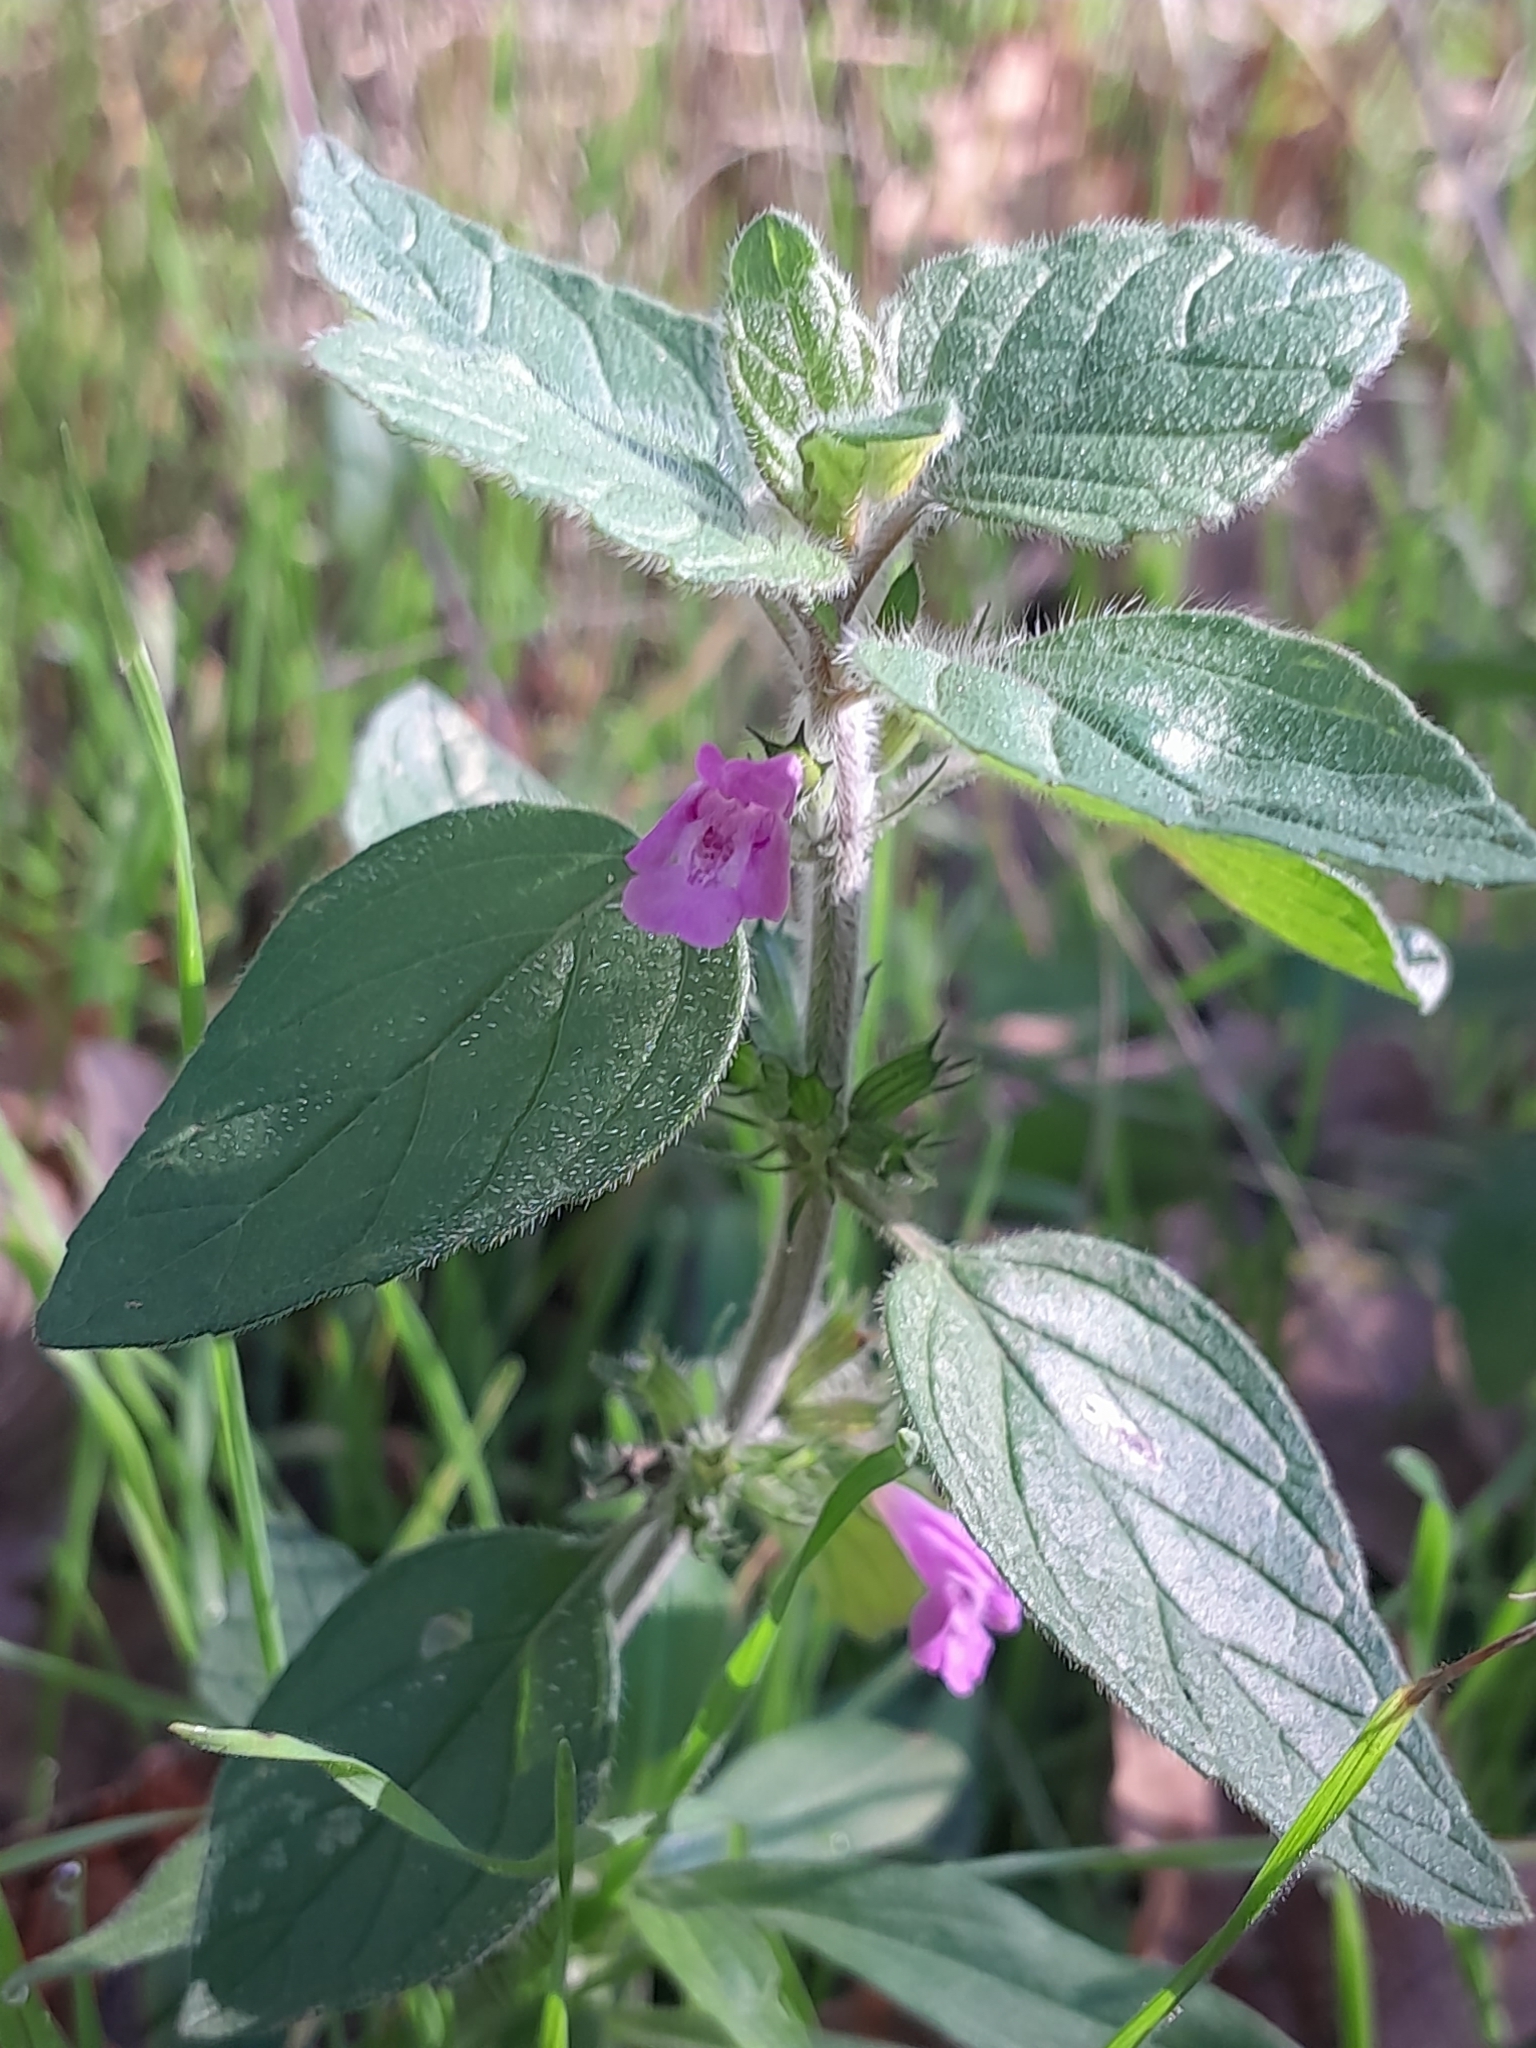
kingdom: Plantae
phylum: Tracheophyta
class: Magnoliopsida
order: Lamiales
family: Lamiaceae
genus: Clinopodium
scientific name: Clinopodium vulgare
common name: Wild basil
